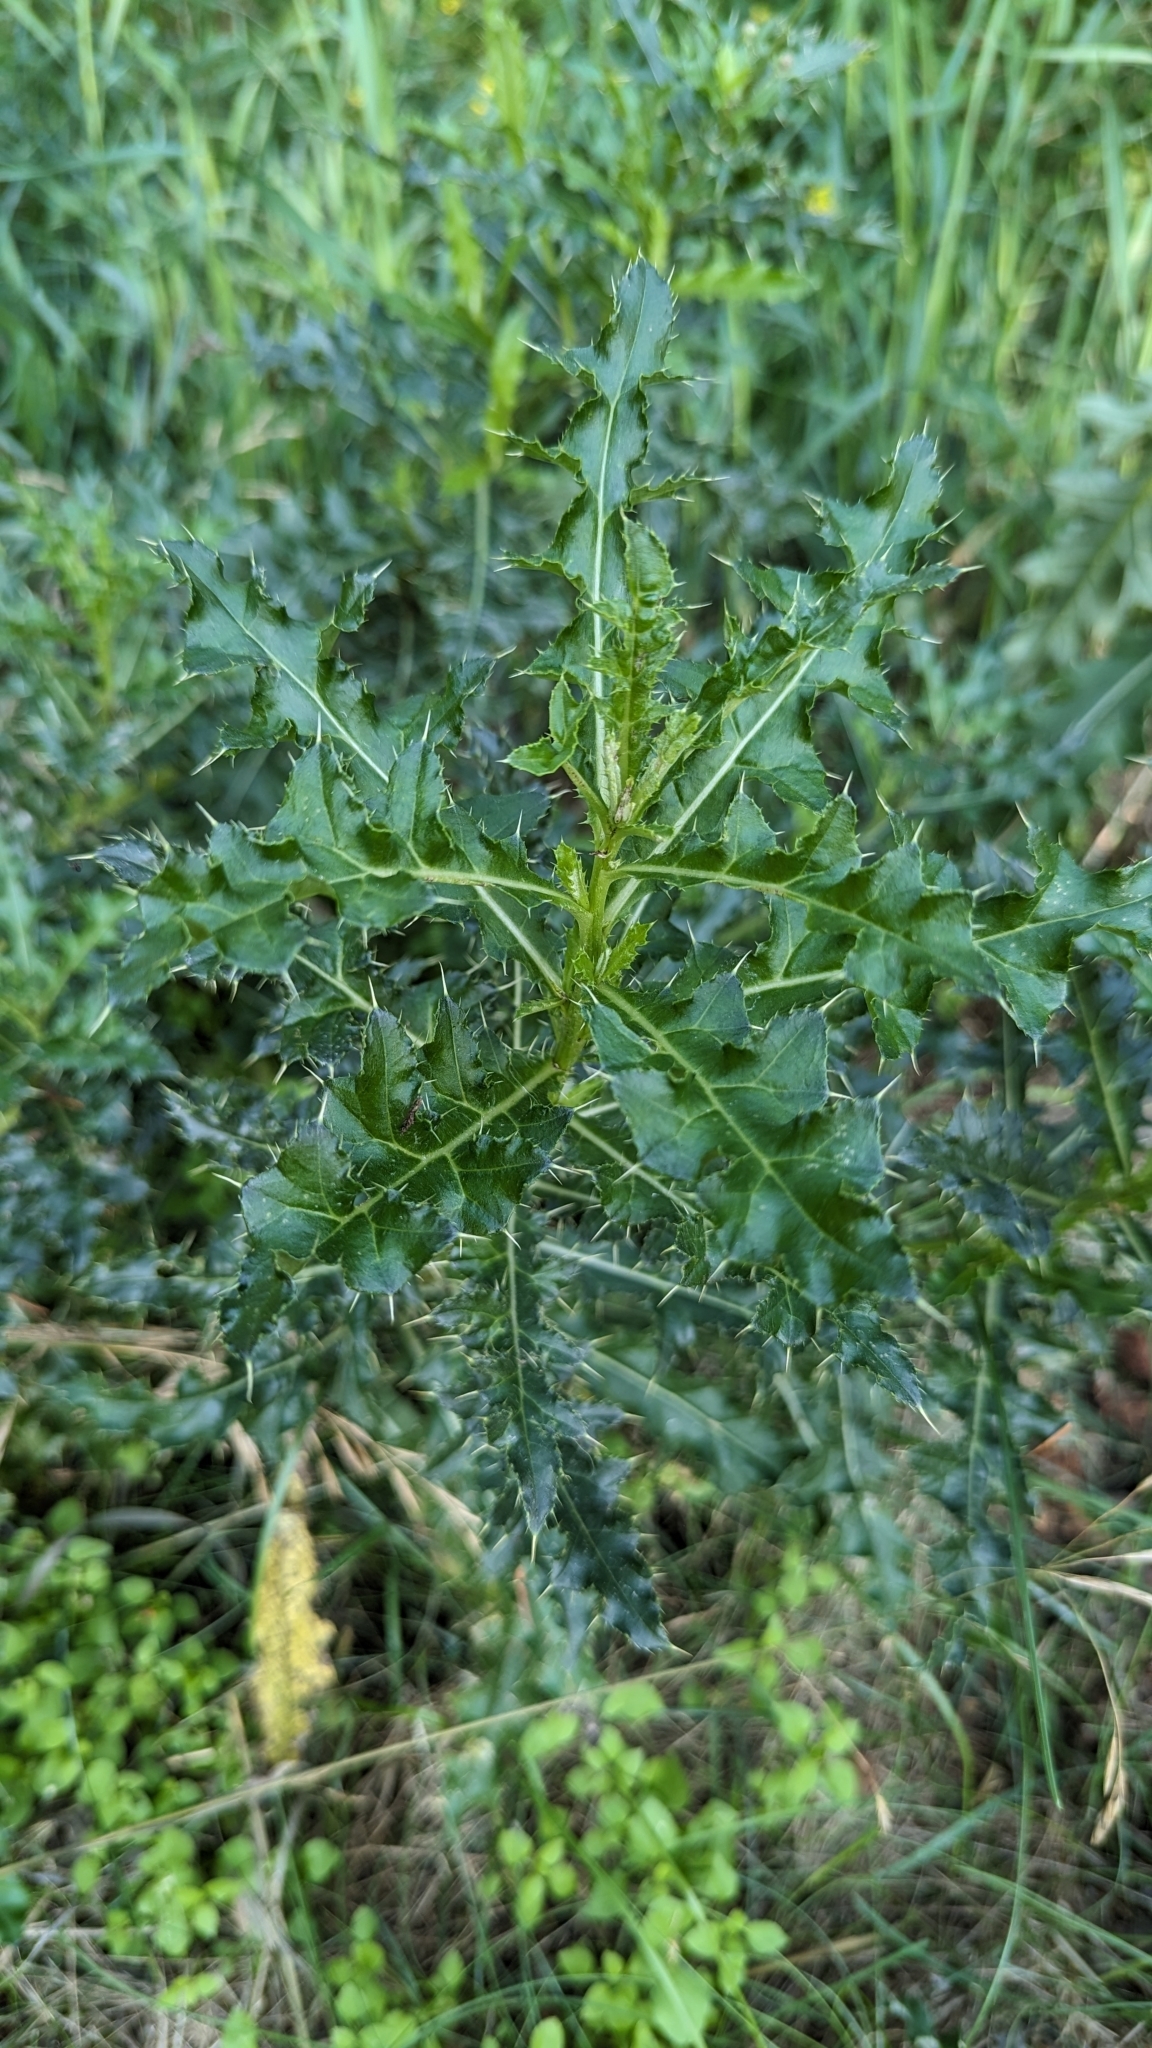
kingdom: Plantae
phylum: Tracheophyta
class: Magnoliopsida
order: Asterales
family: Asteraceae
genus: Cirsium
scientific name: Cirsium arvense
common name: Creeping thistle
